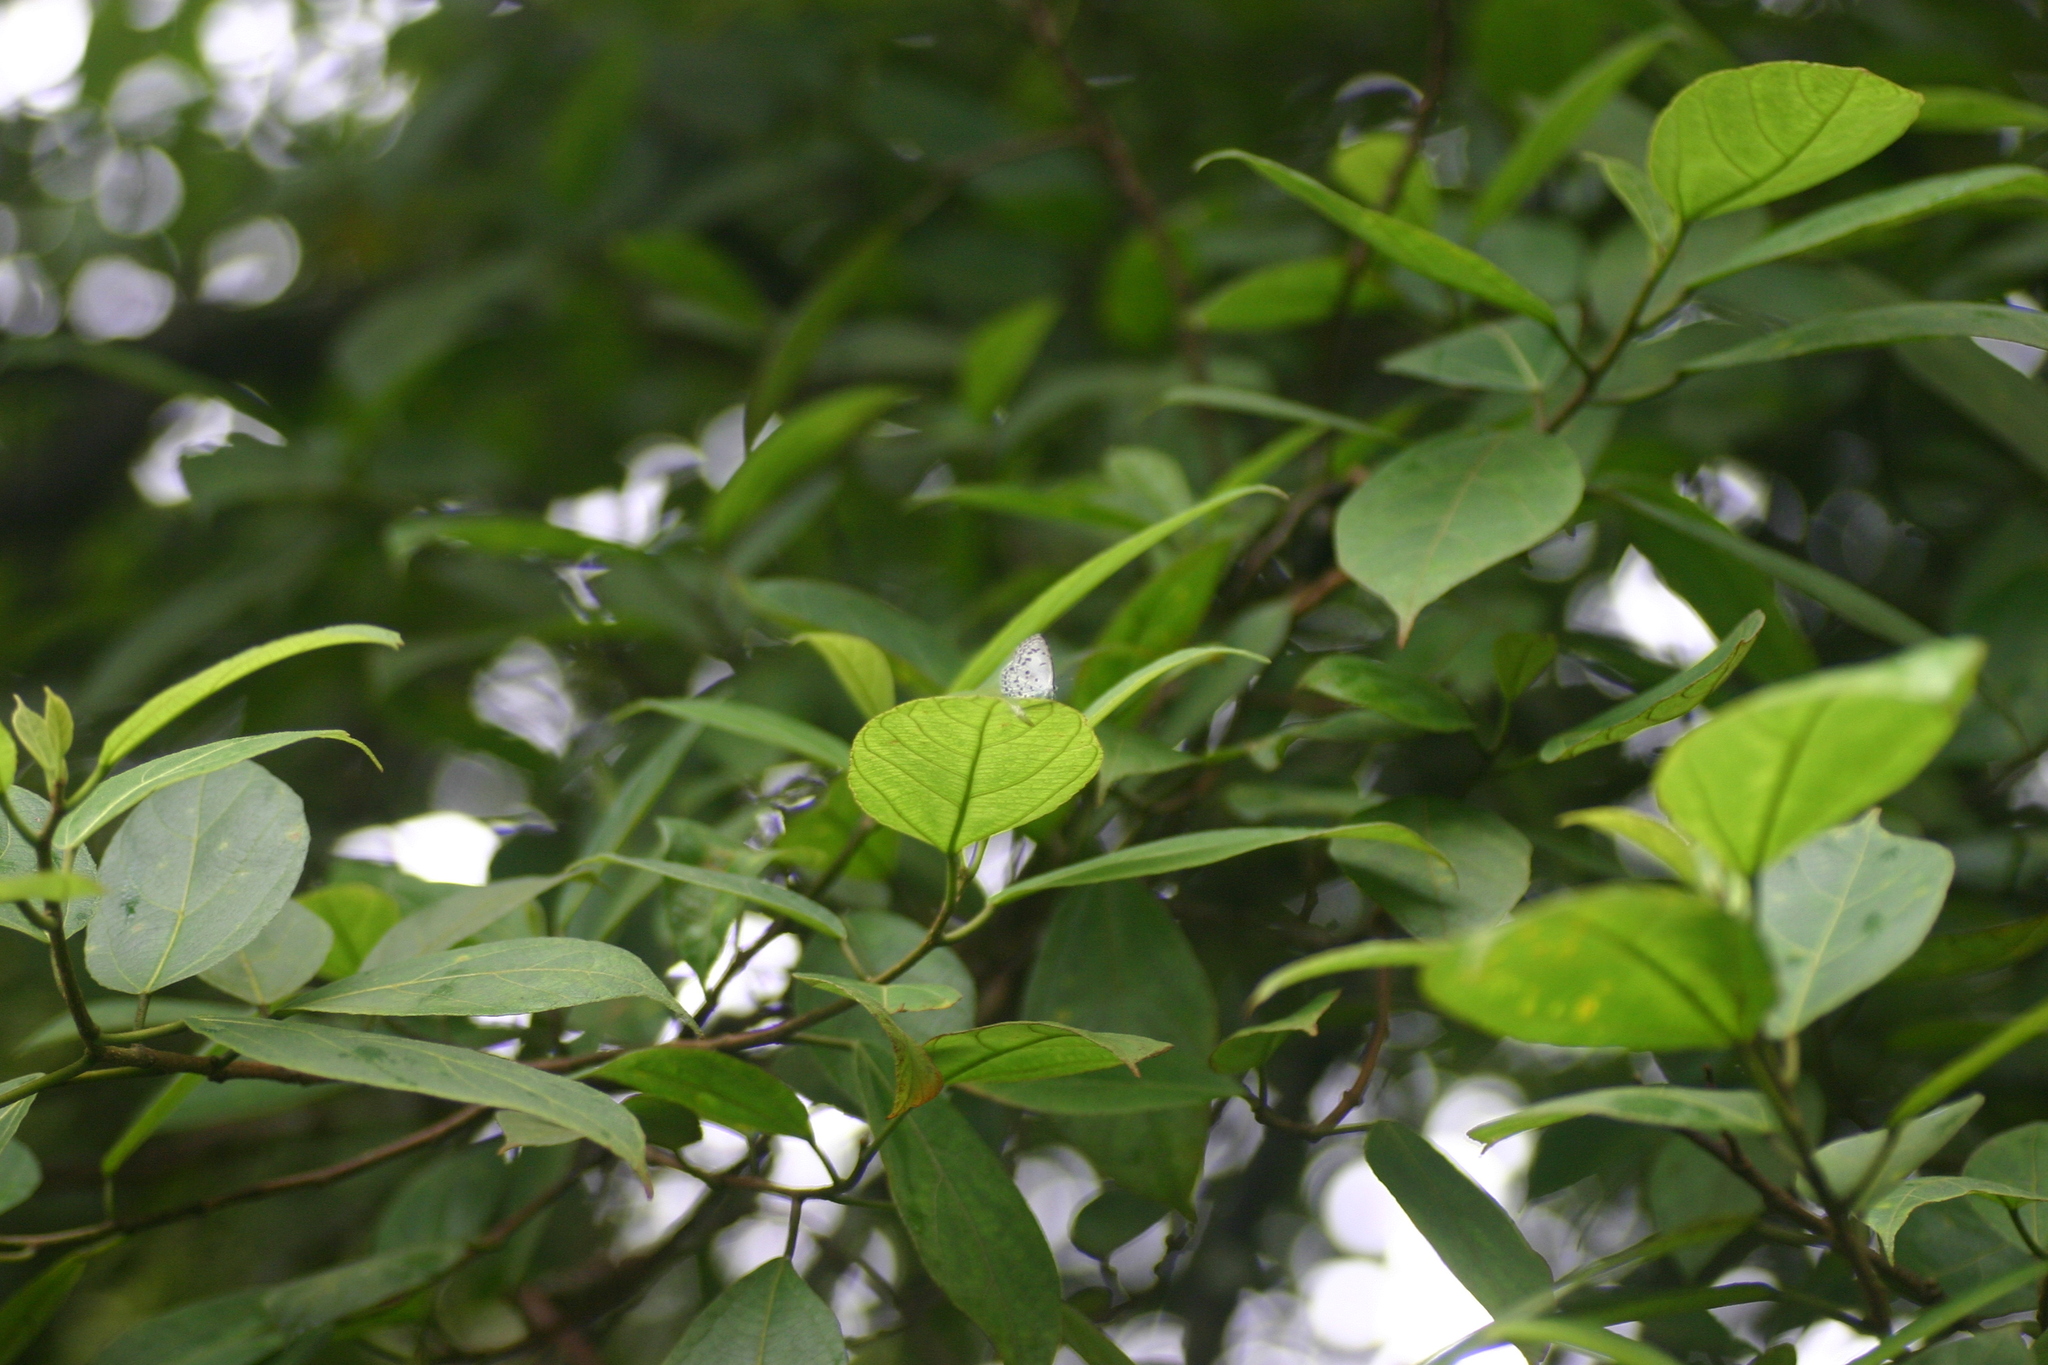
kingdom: Animalia
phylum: Arthropoda
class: Insecta
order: Lepidoptera
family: Lycaenidae
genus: Acytolepis
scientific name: Acytolepis puspa
